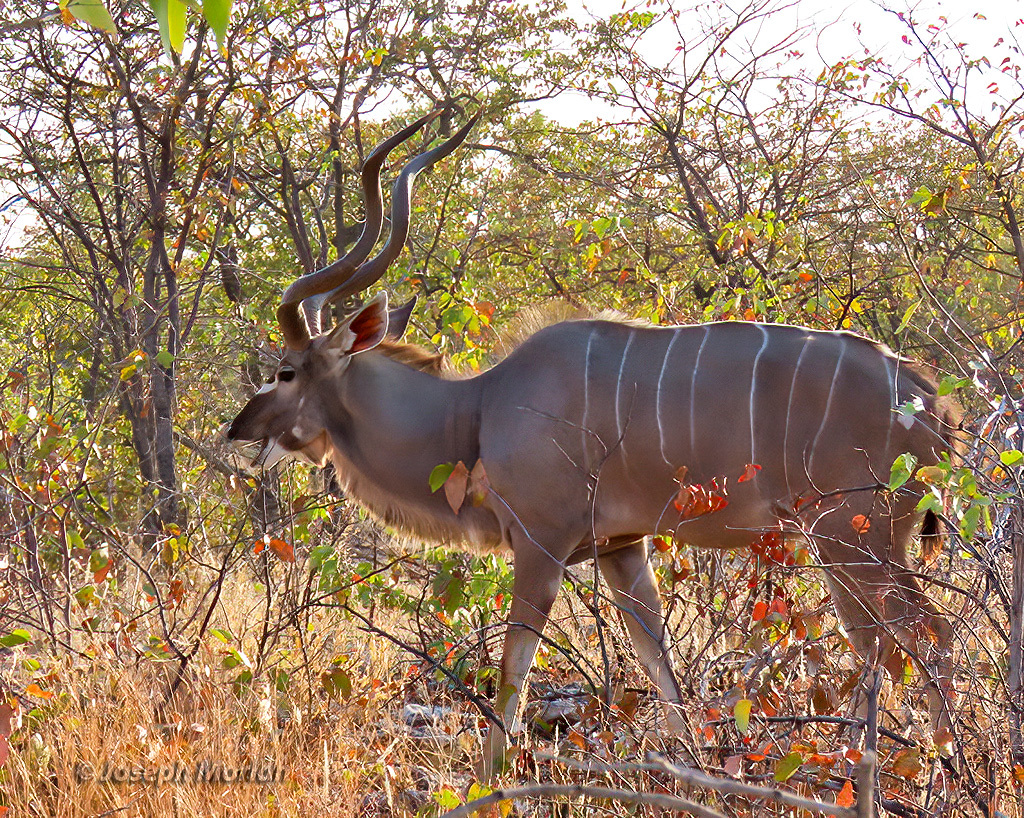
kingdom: Animalia
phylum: Chordata
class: Mammalia
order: Artiodactyla
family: Bovidae
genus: Tragelaphus
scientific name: Tragelaphus strepsiceros
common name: Greater kudu
